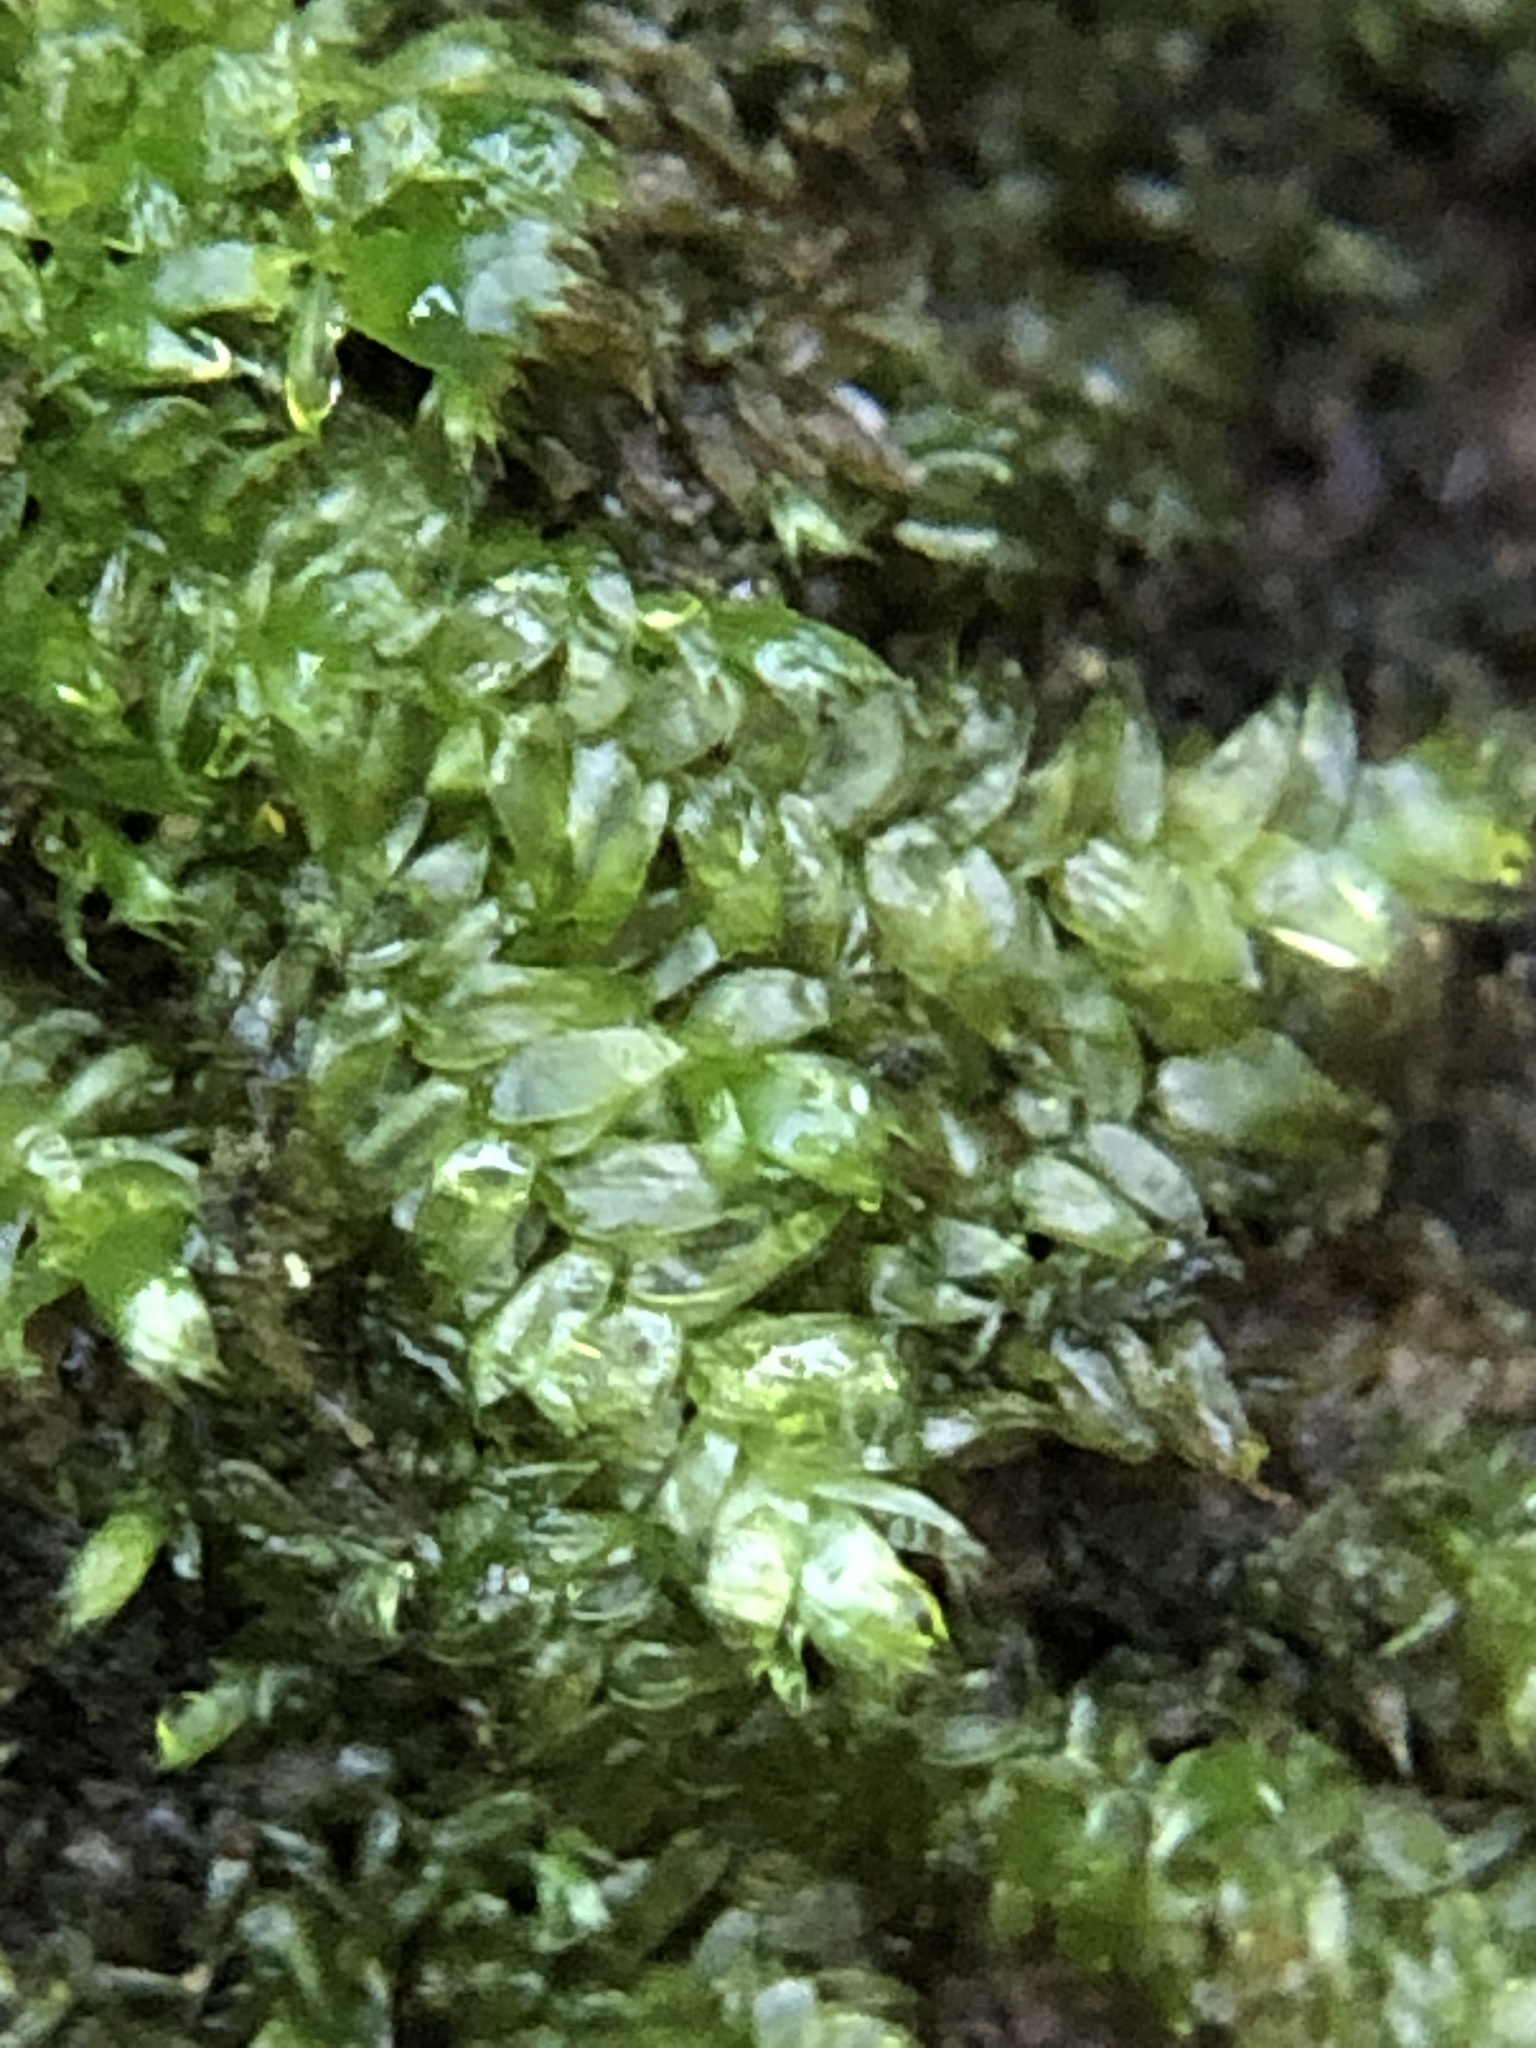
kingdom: Plantae
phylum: Bryophyta
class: Bryopsida
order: Hypnales
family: Plagiotheciaceae
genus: Pseudotaxiphyllum
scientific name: Pseudotaxiphyllum elegans
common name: Elegant silk moss
